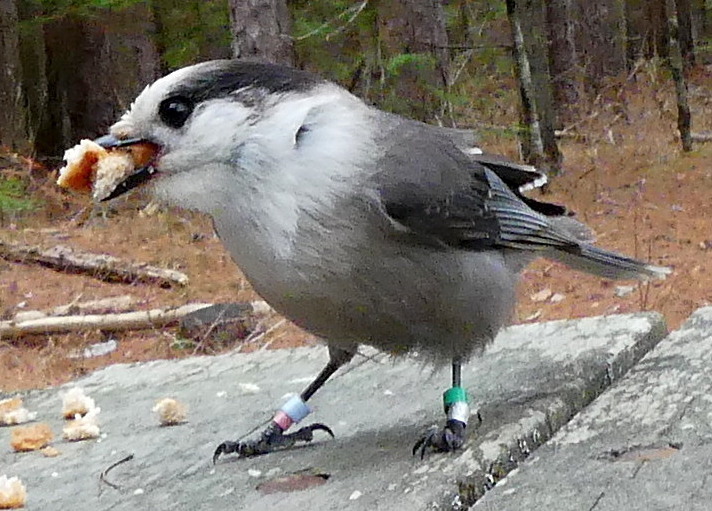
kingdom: Animalia
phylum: Chordata
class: Aves
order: Passeriformes
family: Corvidae
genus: Perisoreus
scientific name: Perisoreus canadensis
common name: Gray jay
